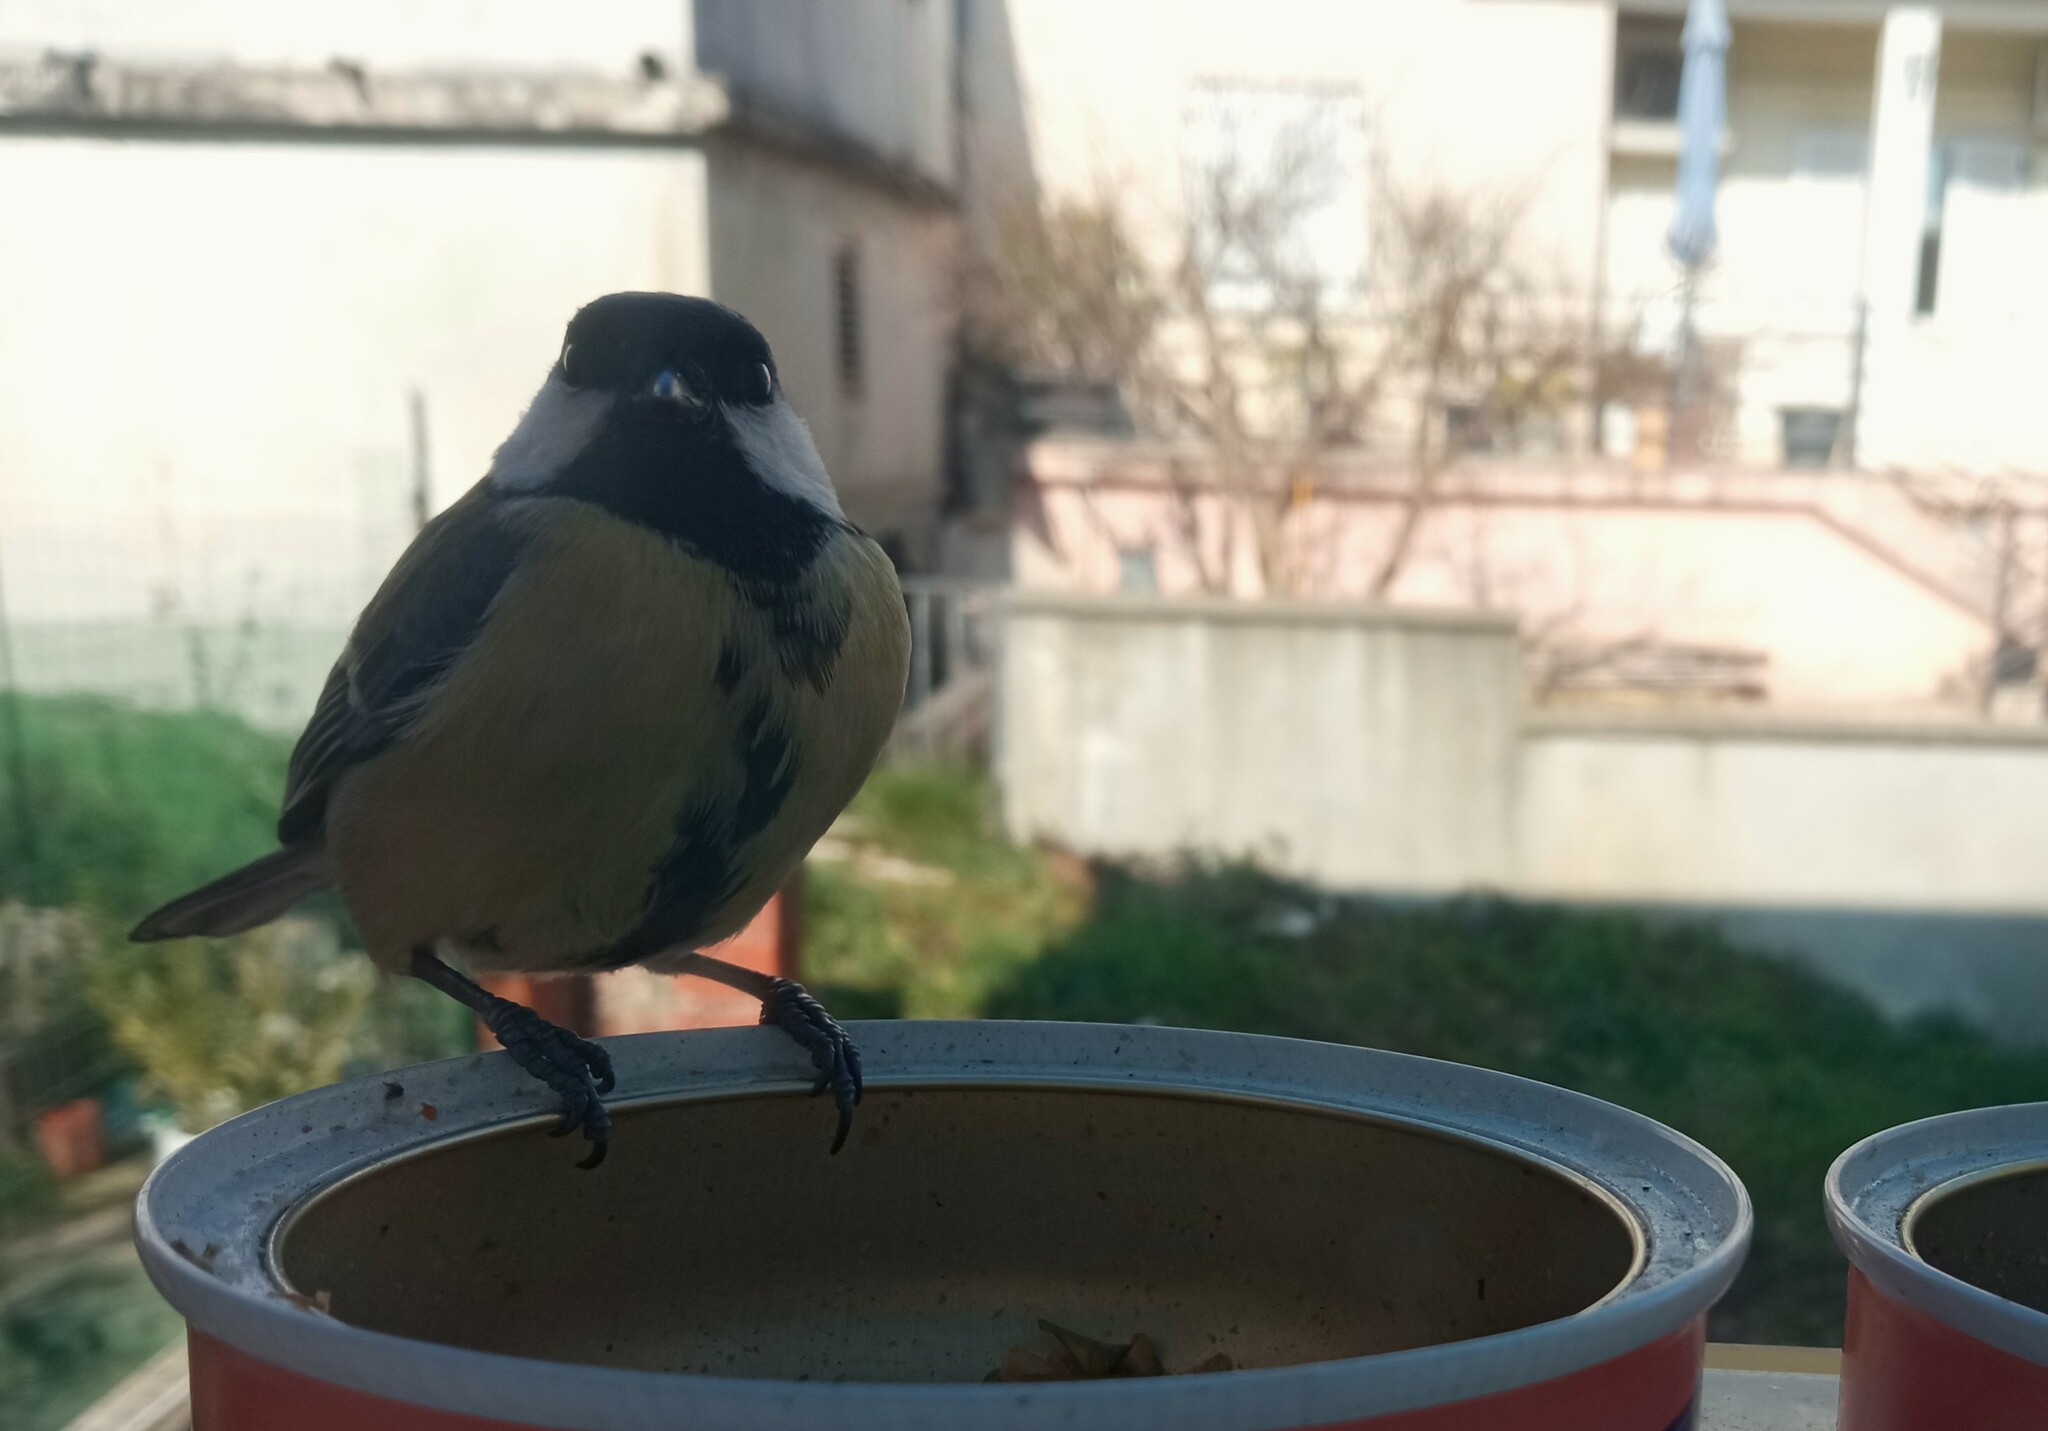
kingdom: Animalia
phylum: Chordata
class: Aves
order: Passeriformes
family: Paridae
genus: Parus
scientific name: Parus major
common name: Great tit
